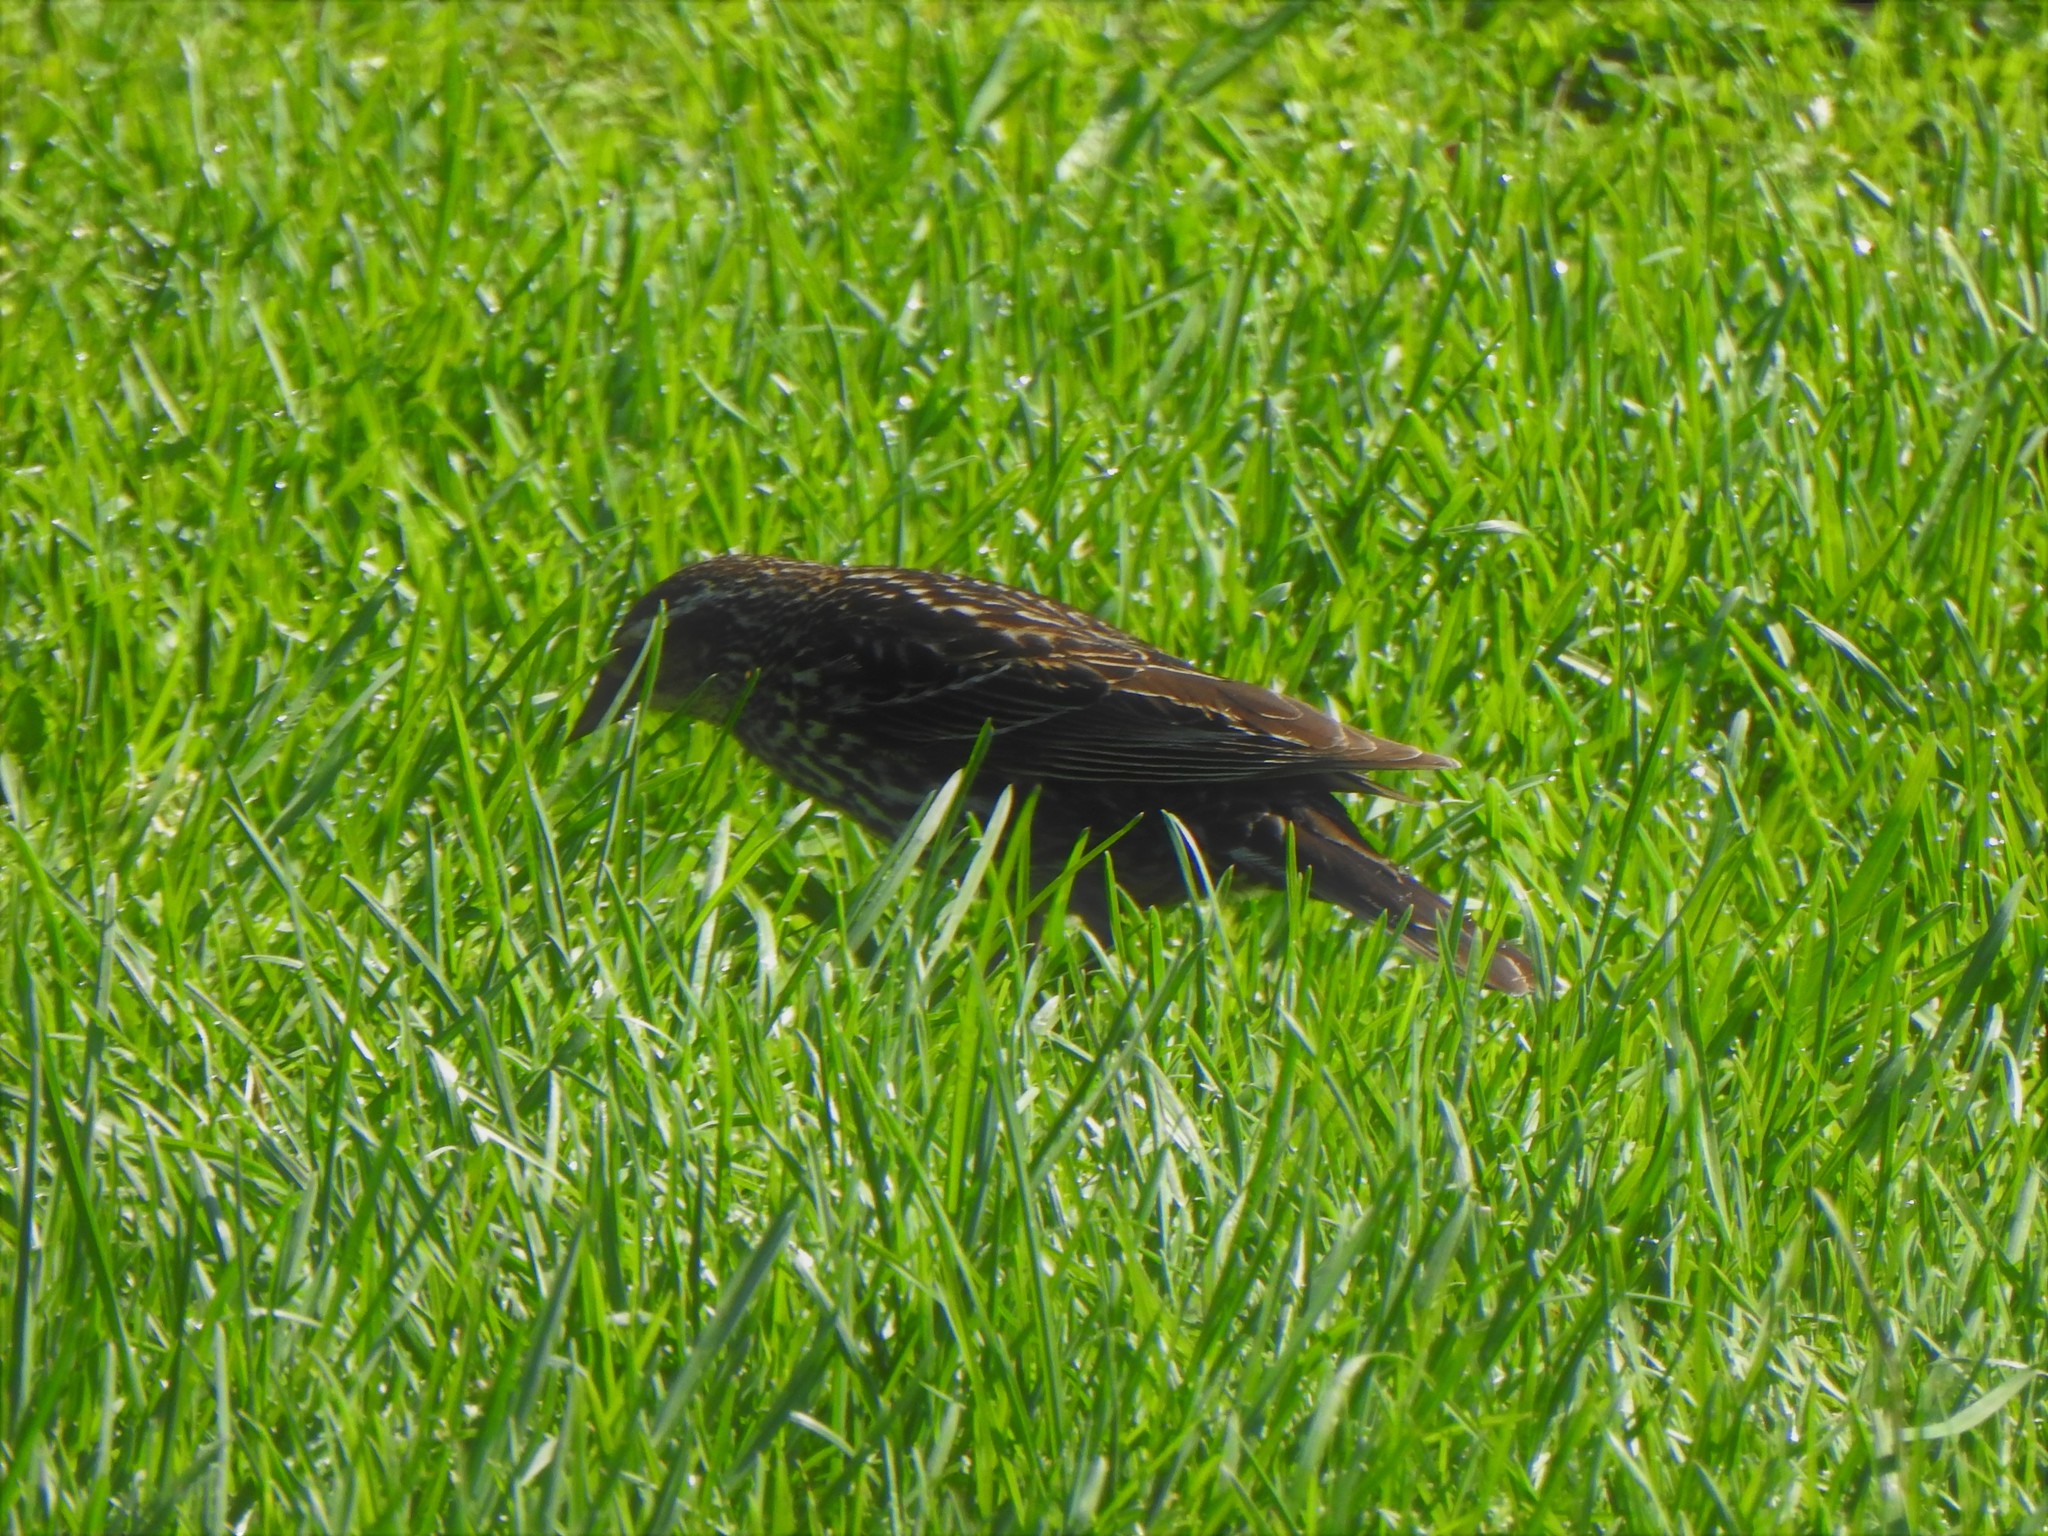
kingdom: Animalia
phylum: Chordata
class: Aves
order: Passeriformes
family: Icteridae
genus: Agelaius
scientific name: Agelaius phoeniceus
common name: Red-winged blackbird
